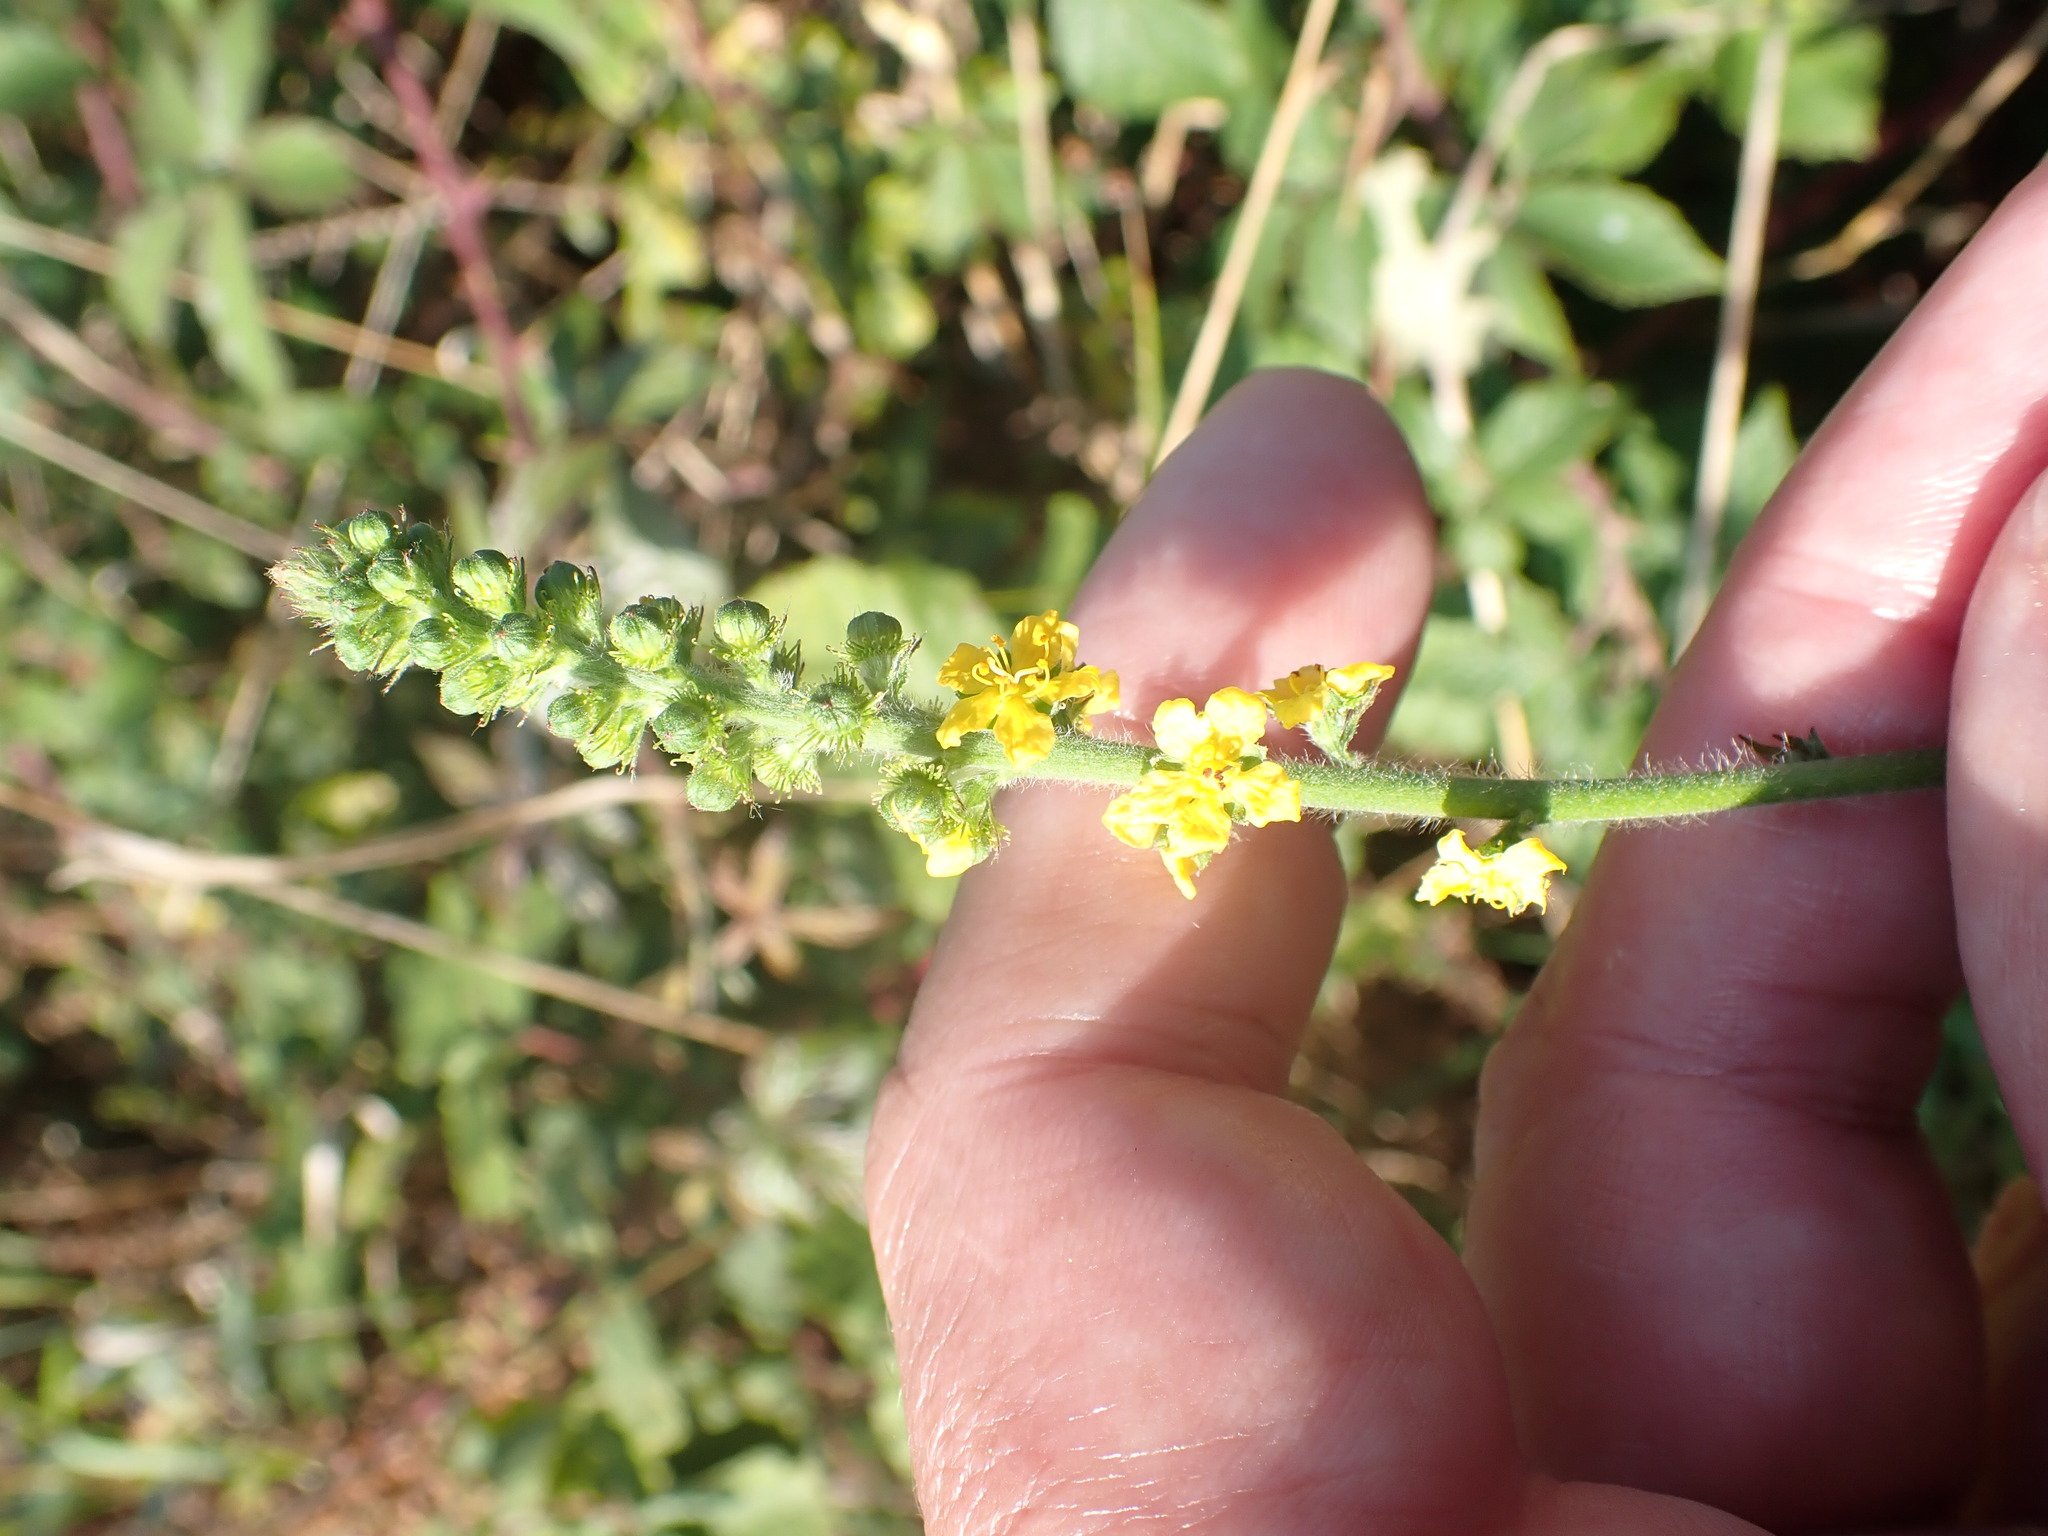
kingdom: Plantae
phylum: Tracheophyta
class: Magnoliopsida
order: Rosales
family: Rosaceae
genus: Agrimonia
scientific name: Agrimonia eupatoria
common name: Agrimony
